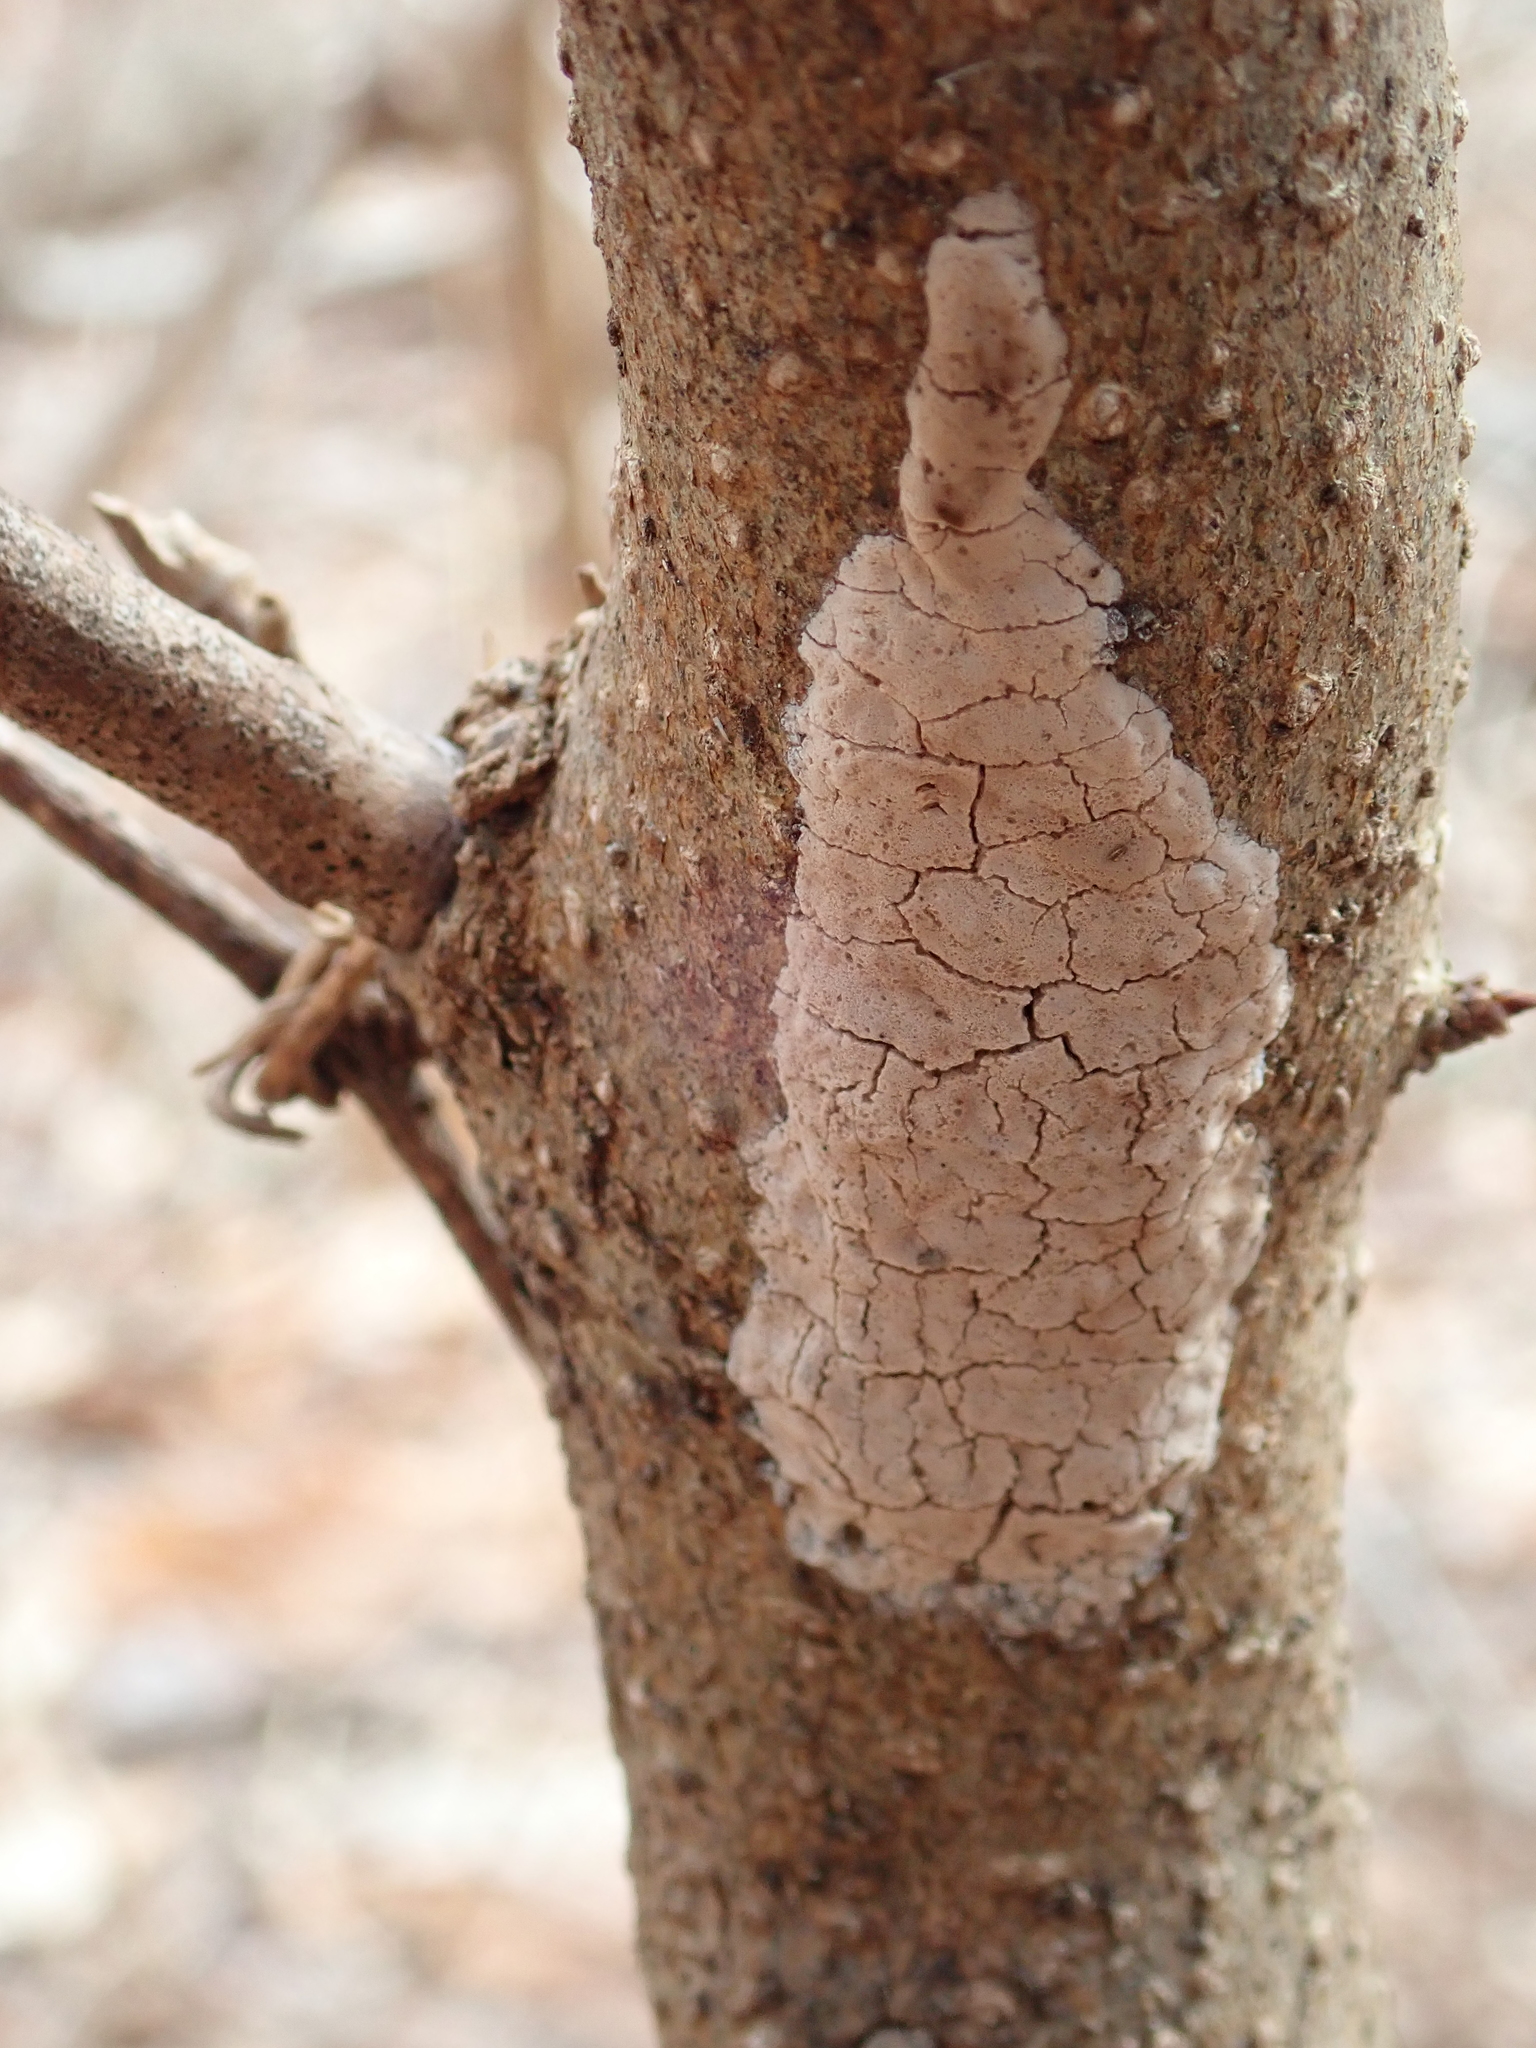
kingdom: Animalia
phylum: Arthropoda
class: Insecta
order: Hemiptera
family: Fulgoridae
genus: Lycorma
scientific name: Lycorma delicatula
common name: Spotted lanternfly
